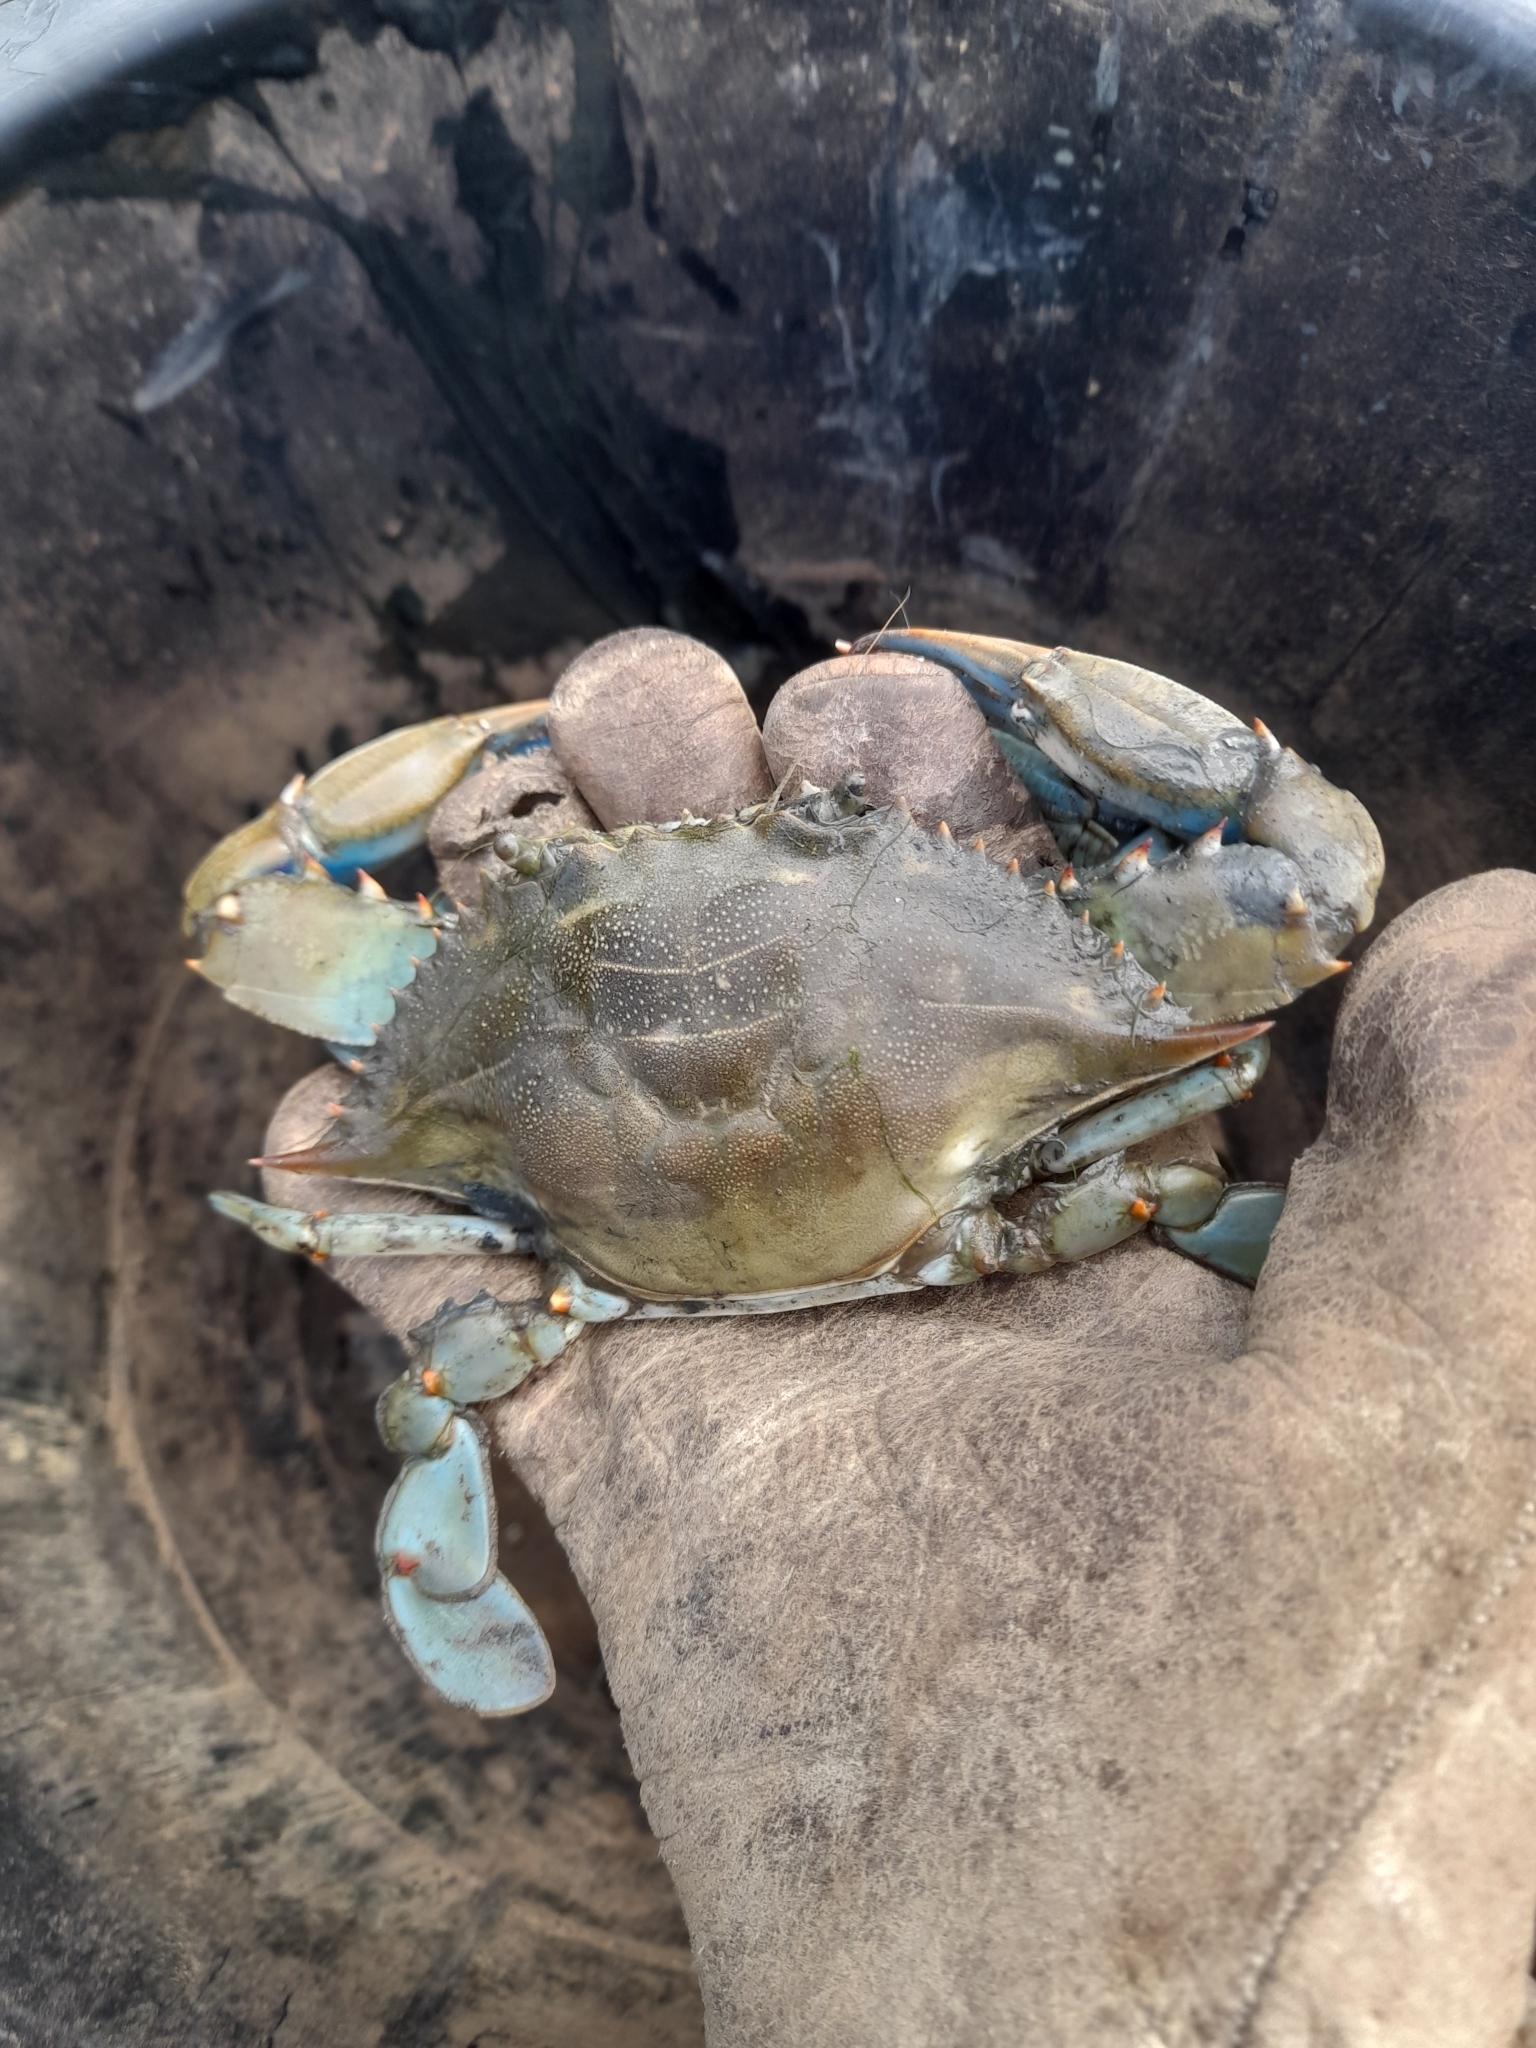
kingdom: Animalia
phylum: Arthropoda
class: Malacostraca
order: Decapoda
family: Portunidae
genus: Callinectes
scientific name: Callinectes sapidus
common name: Blue crab
